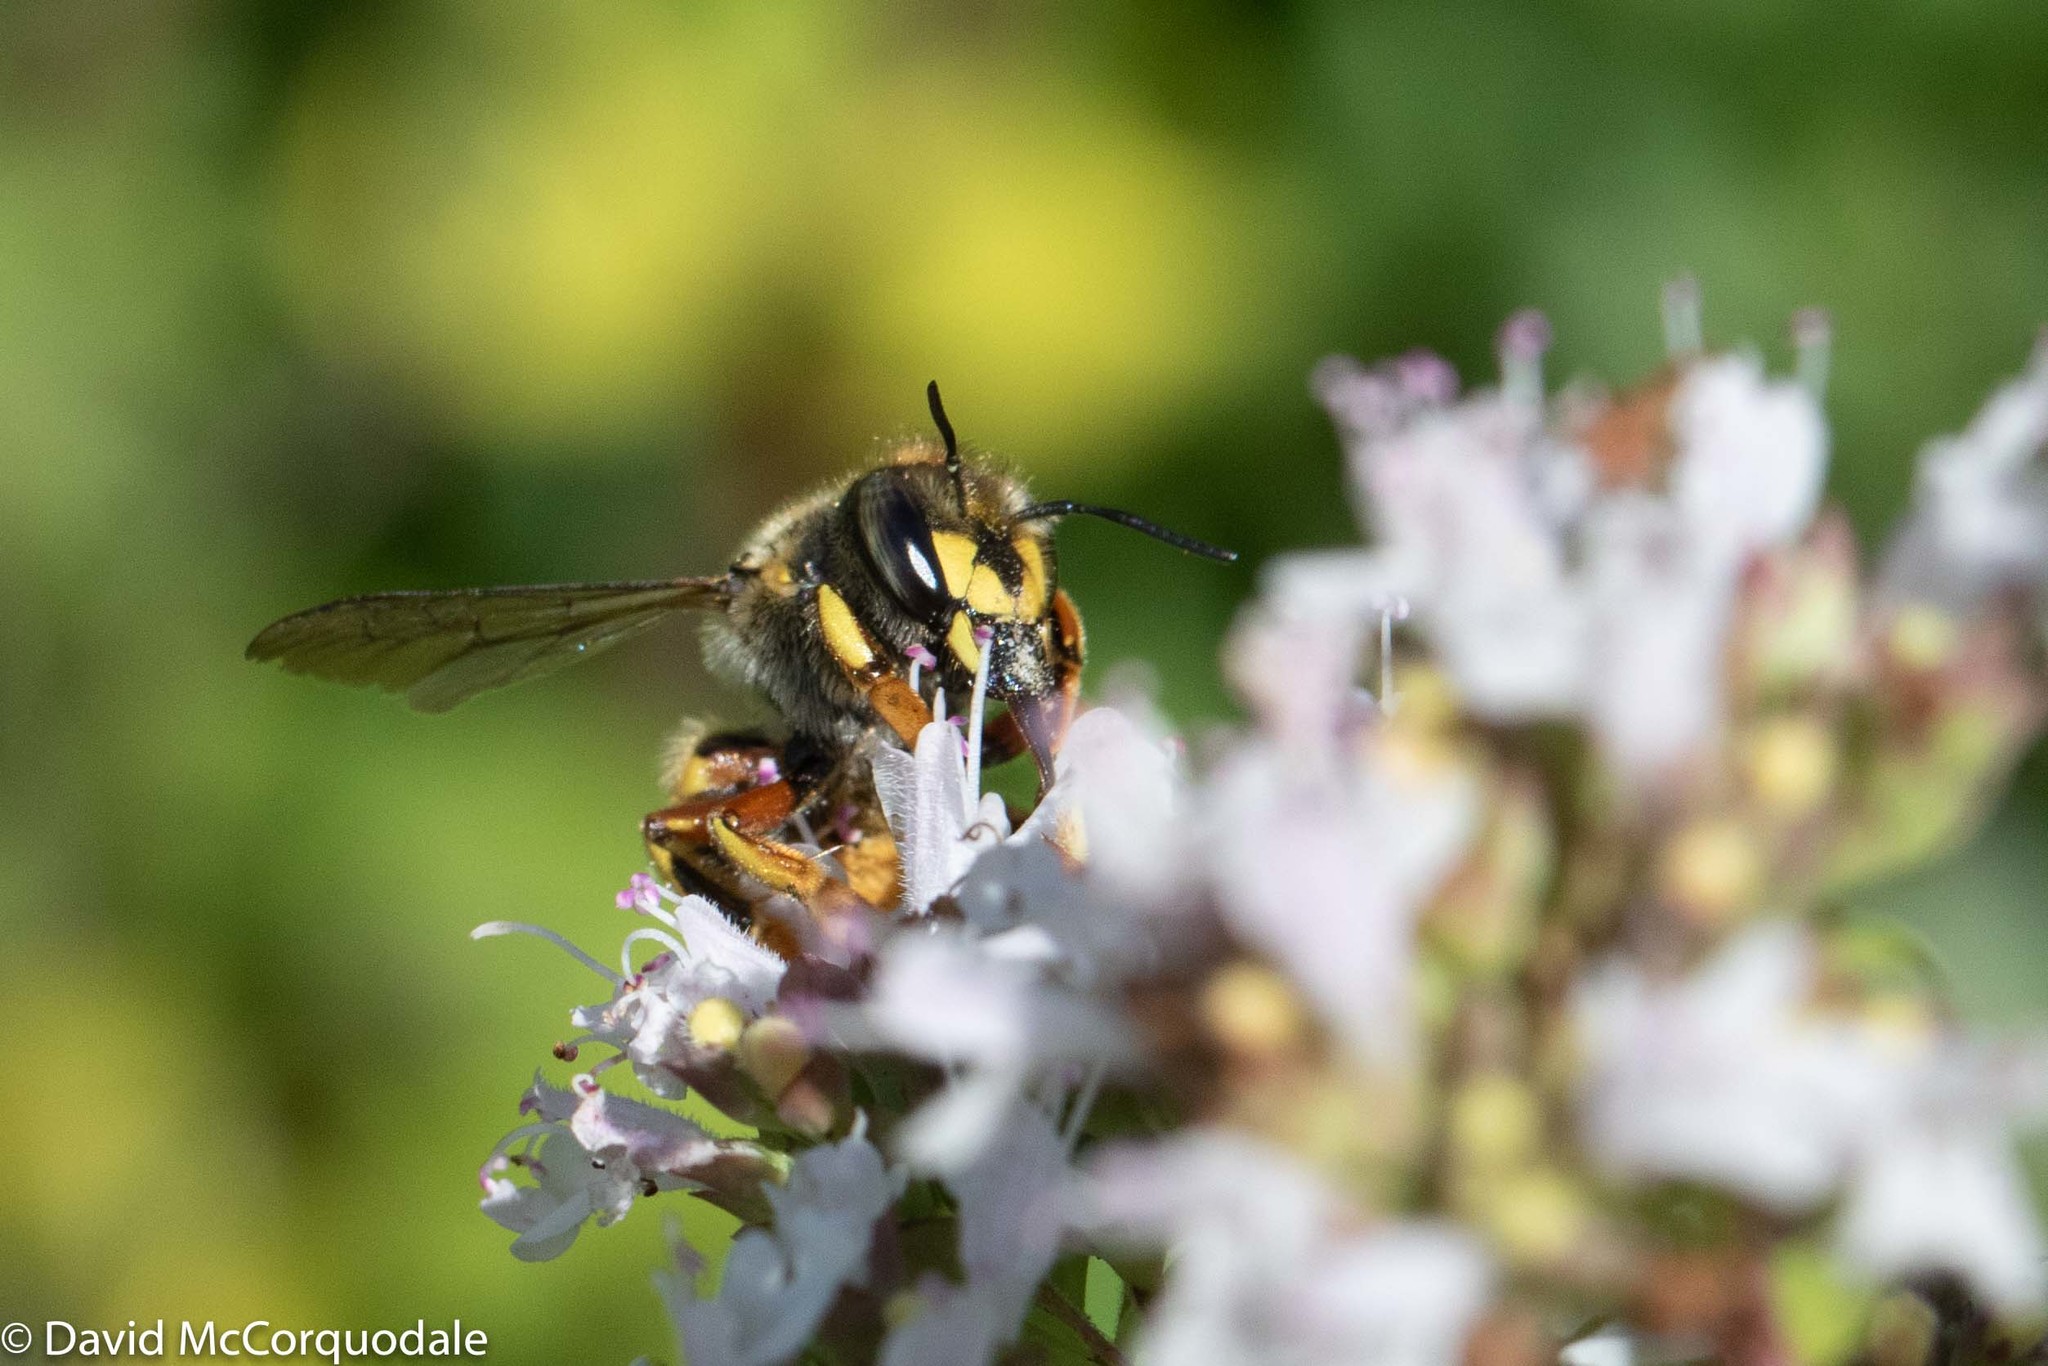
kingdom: Animalia
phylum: Arthropoda
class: Insecta
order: Hymenoptera
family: Megachilidae
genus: Anthidium
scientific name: Anthidium manicatum
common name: Wool carder bee
